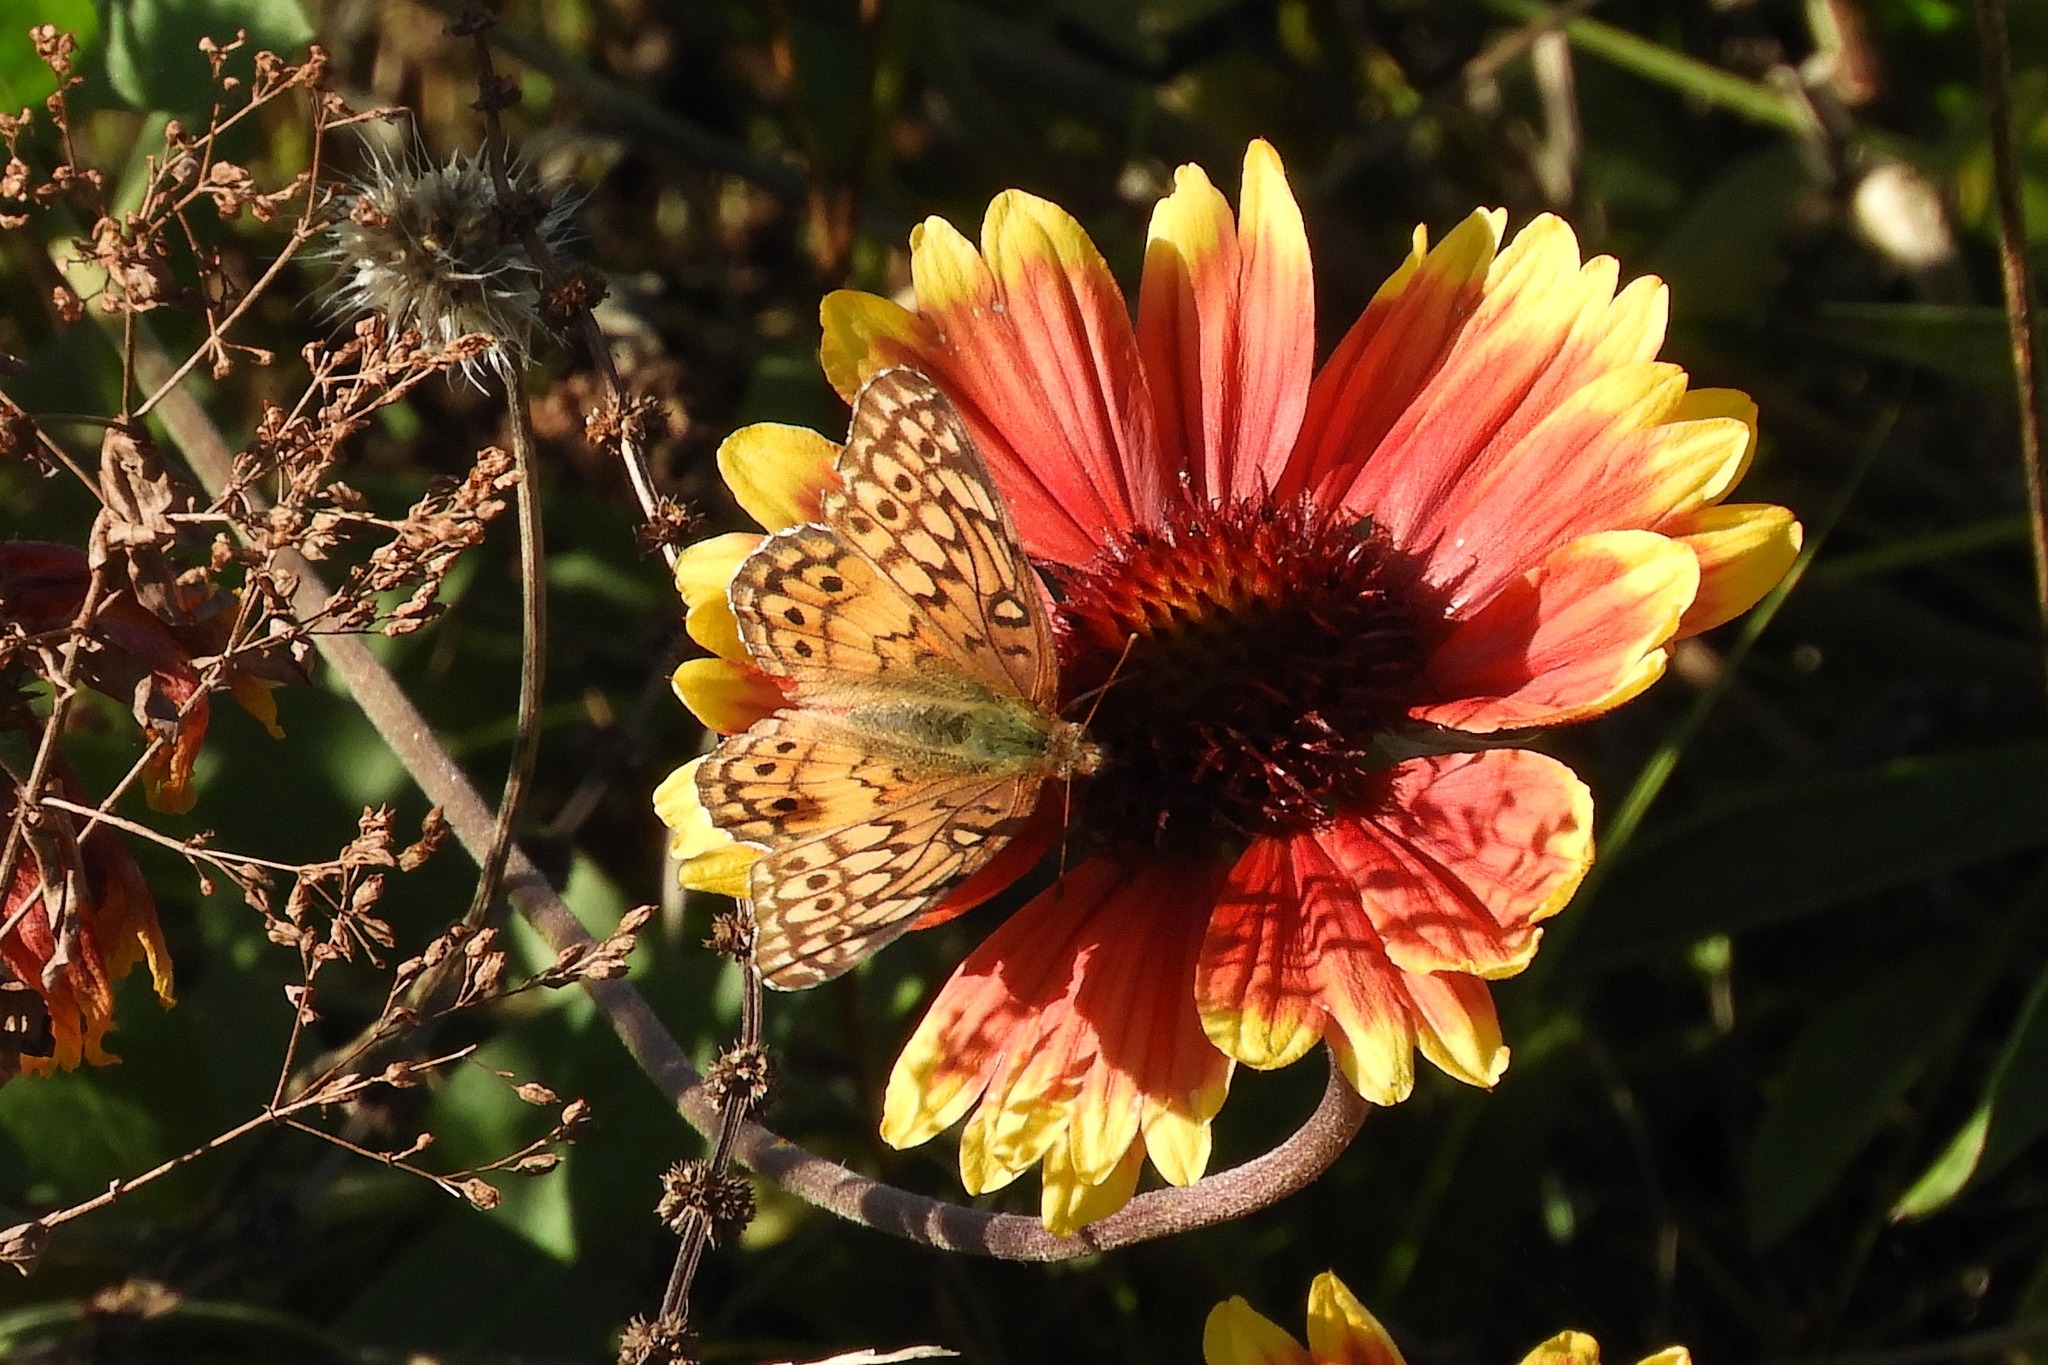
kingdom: Animalia
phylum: Arthropoda
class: Insecta
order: Lepidoptera
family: Nymphalidae
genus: Euptoieta
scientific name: Euptoieta claudia
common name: Variegated fritillary
